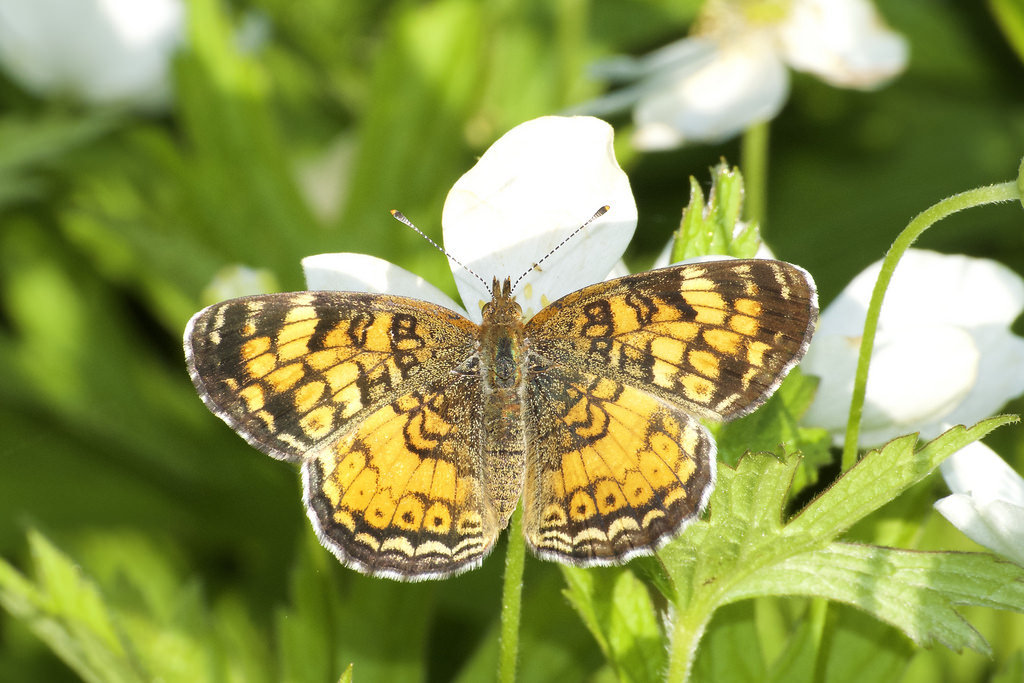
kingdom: Animalia
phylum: Arthropoda
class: Insecta
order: Lepidoptera
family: Nymphalidae
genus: Phyciodes
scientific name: Phyciodes tharos
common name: Pearl crescent
